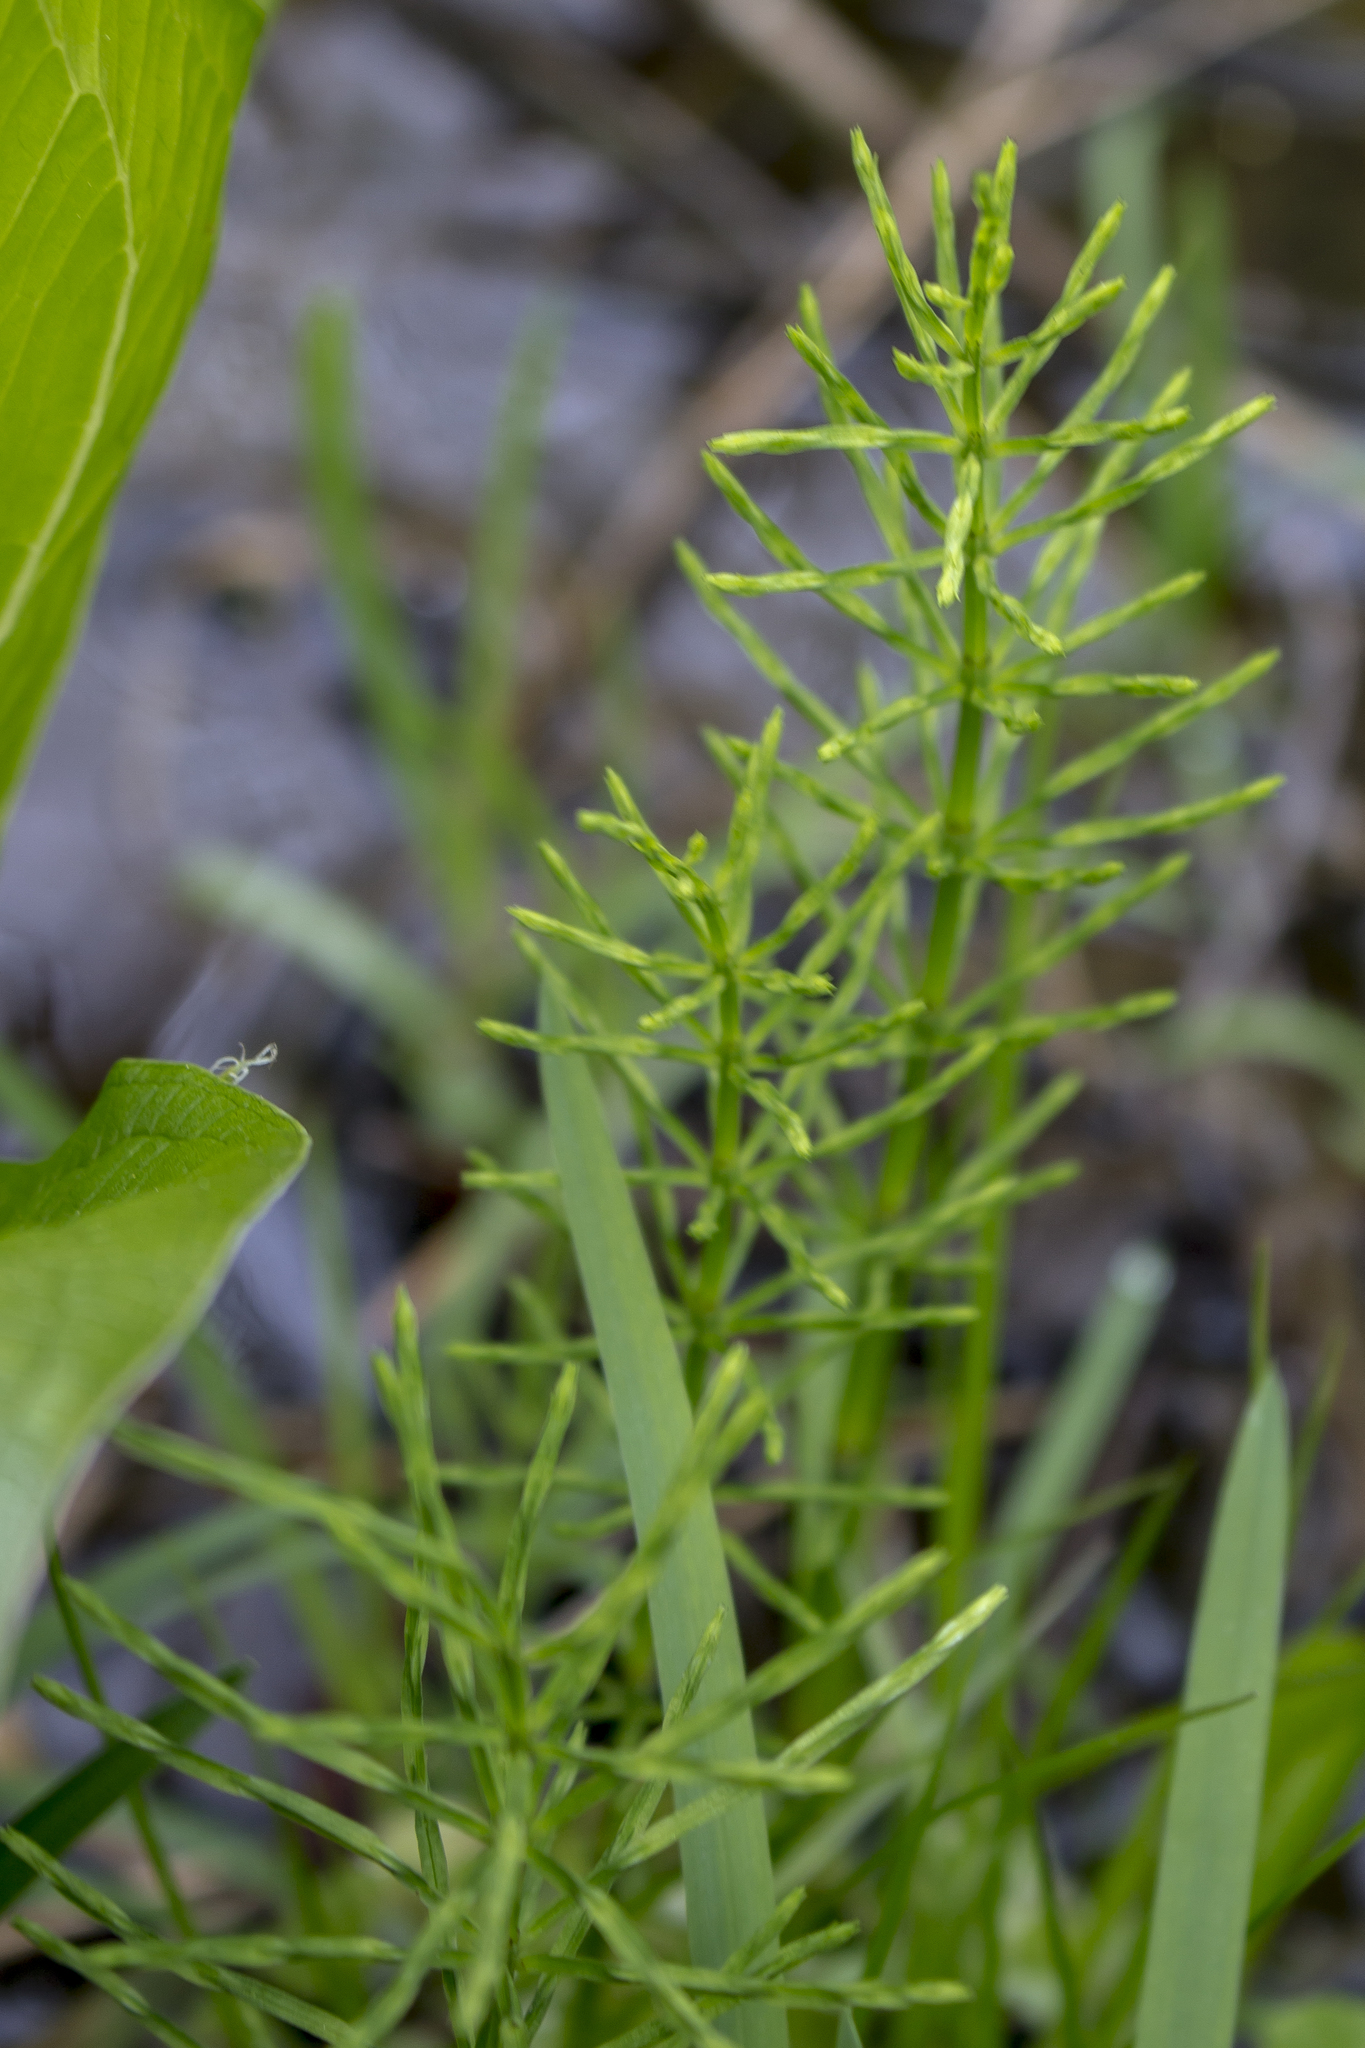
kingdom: Plantae
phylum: Tracheophyta
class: Polypodiopsida
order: Equisetales
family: Equisetaceae
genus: Equisetum
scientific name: Equisetum arvense
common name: Field horsetail
